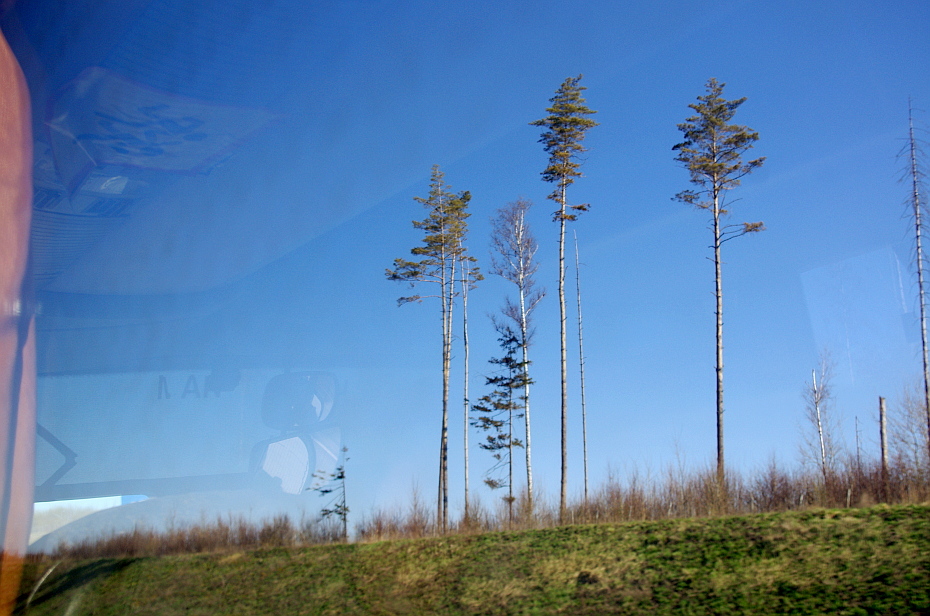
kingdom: Plantae
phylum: Tracheophyta
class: Pinopsida
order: Pinales
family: Pinaceae
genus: Pinus
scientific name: Pinus sylvestris
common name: Scots pine
